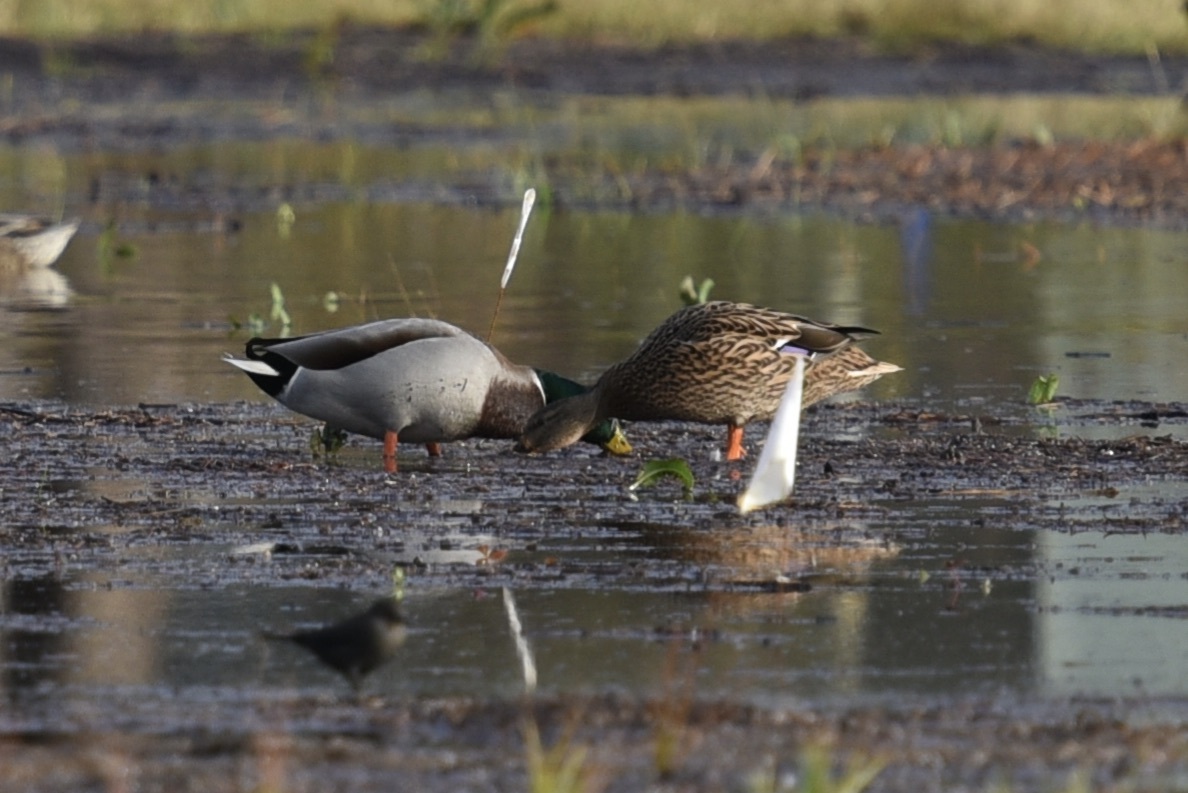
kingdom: Animalia
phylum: Chordata
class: Aves
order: Anseriformes
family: Anatidae
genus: Anas
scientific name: Anas platyrhynchos
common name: Mallard
